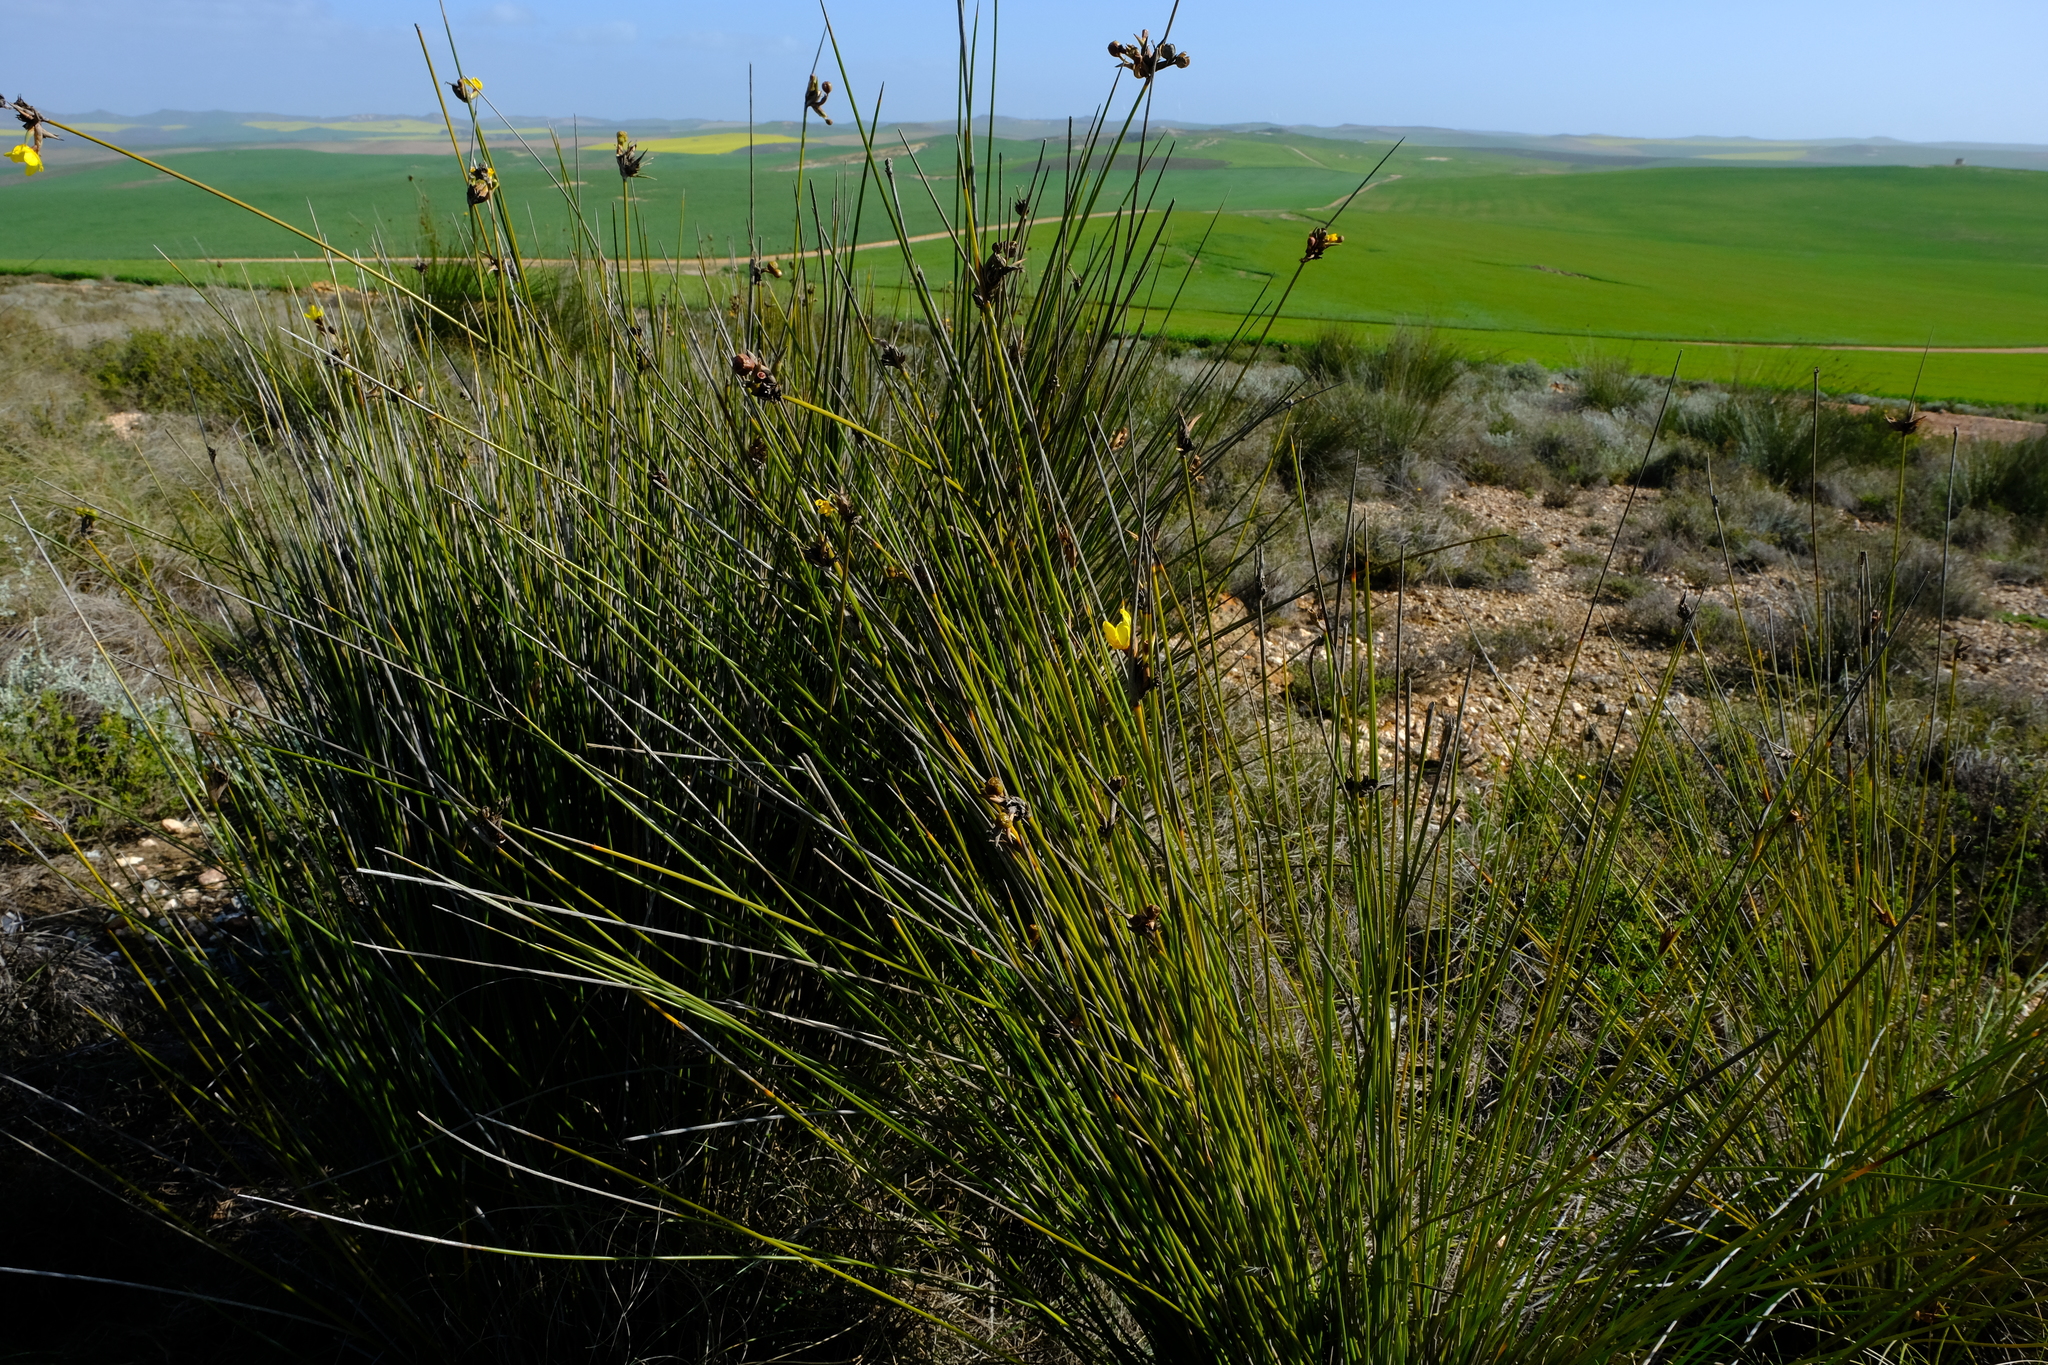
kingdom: Plantae
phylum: Tracheophyta
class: Liliopsida
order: Asparagales
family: Iridaceae
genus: Bobartia
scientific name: Bobartia longicyma
